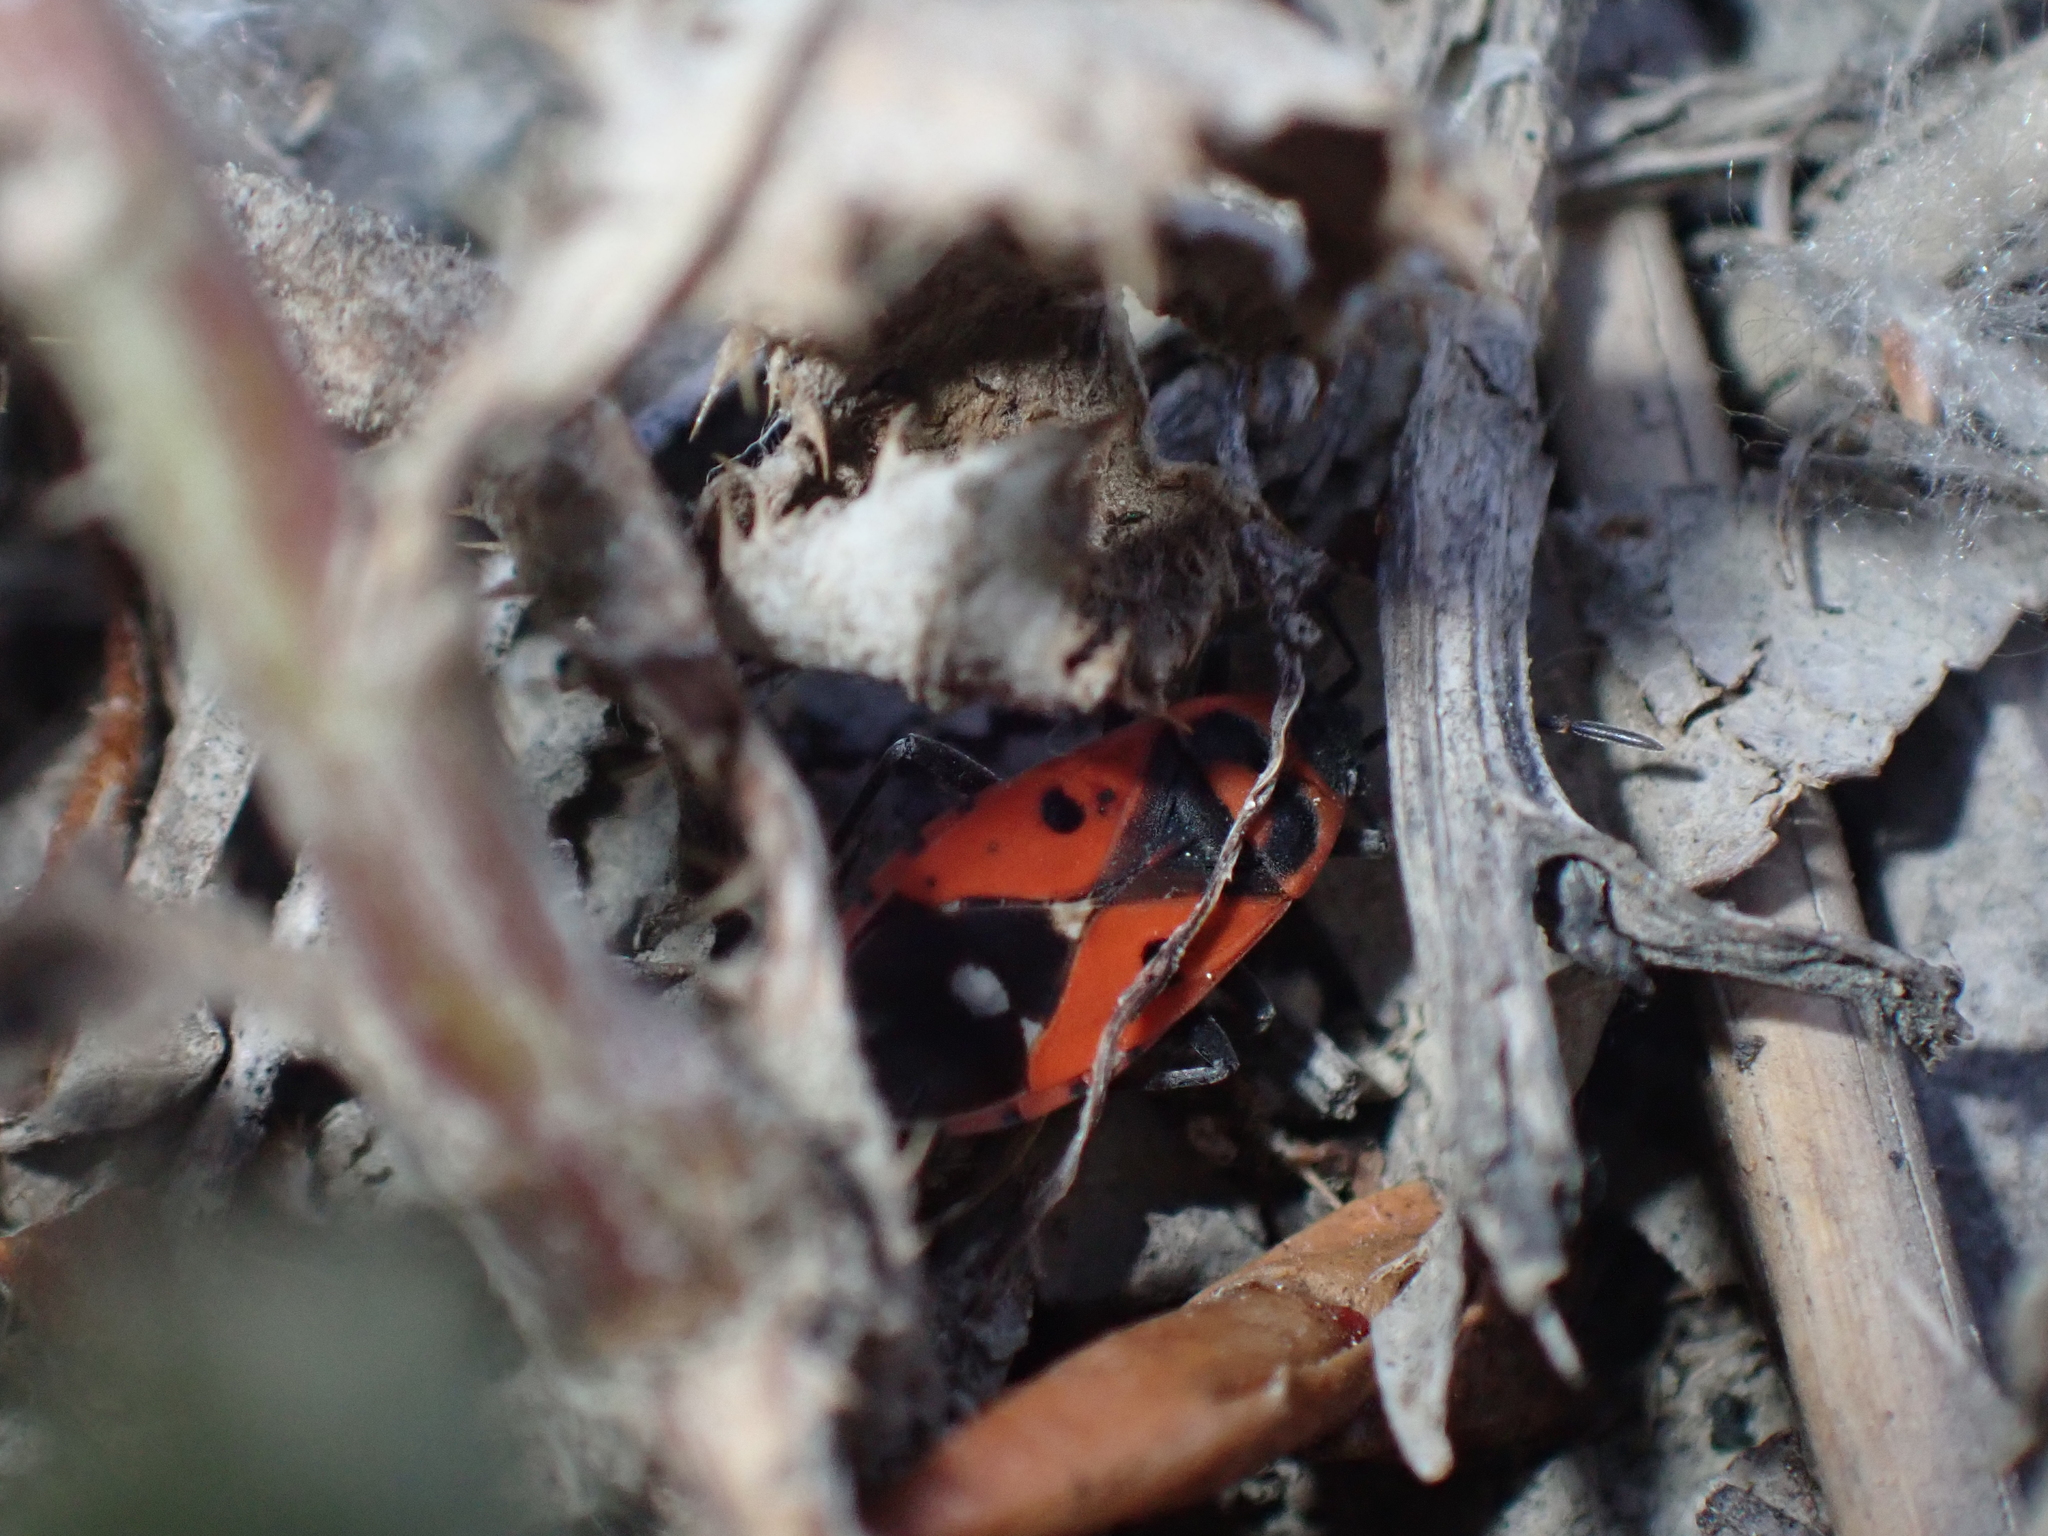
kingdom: Animalia
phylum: Arthropoda
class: Insecta
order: Hemiptera
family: Lygaeidae
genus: Melanocoryphus
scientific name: Melanocoryphus albomaculatus
